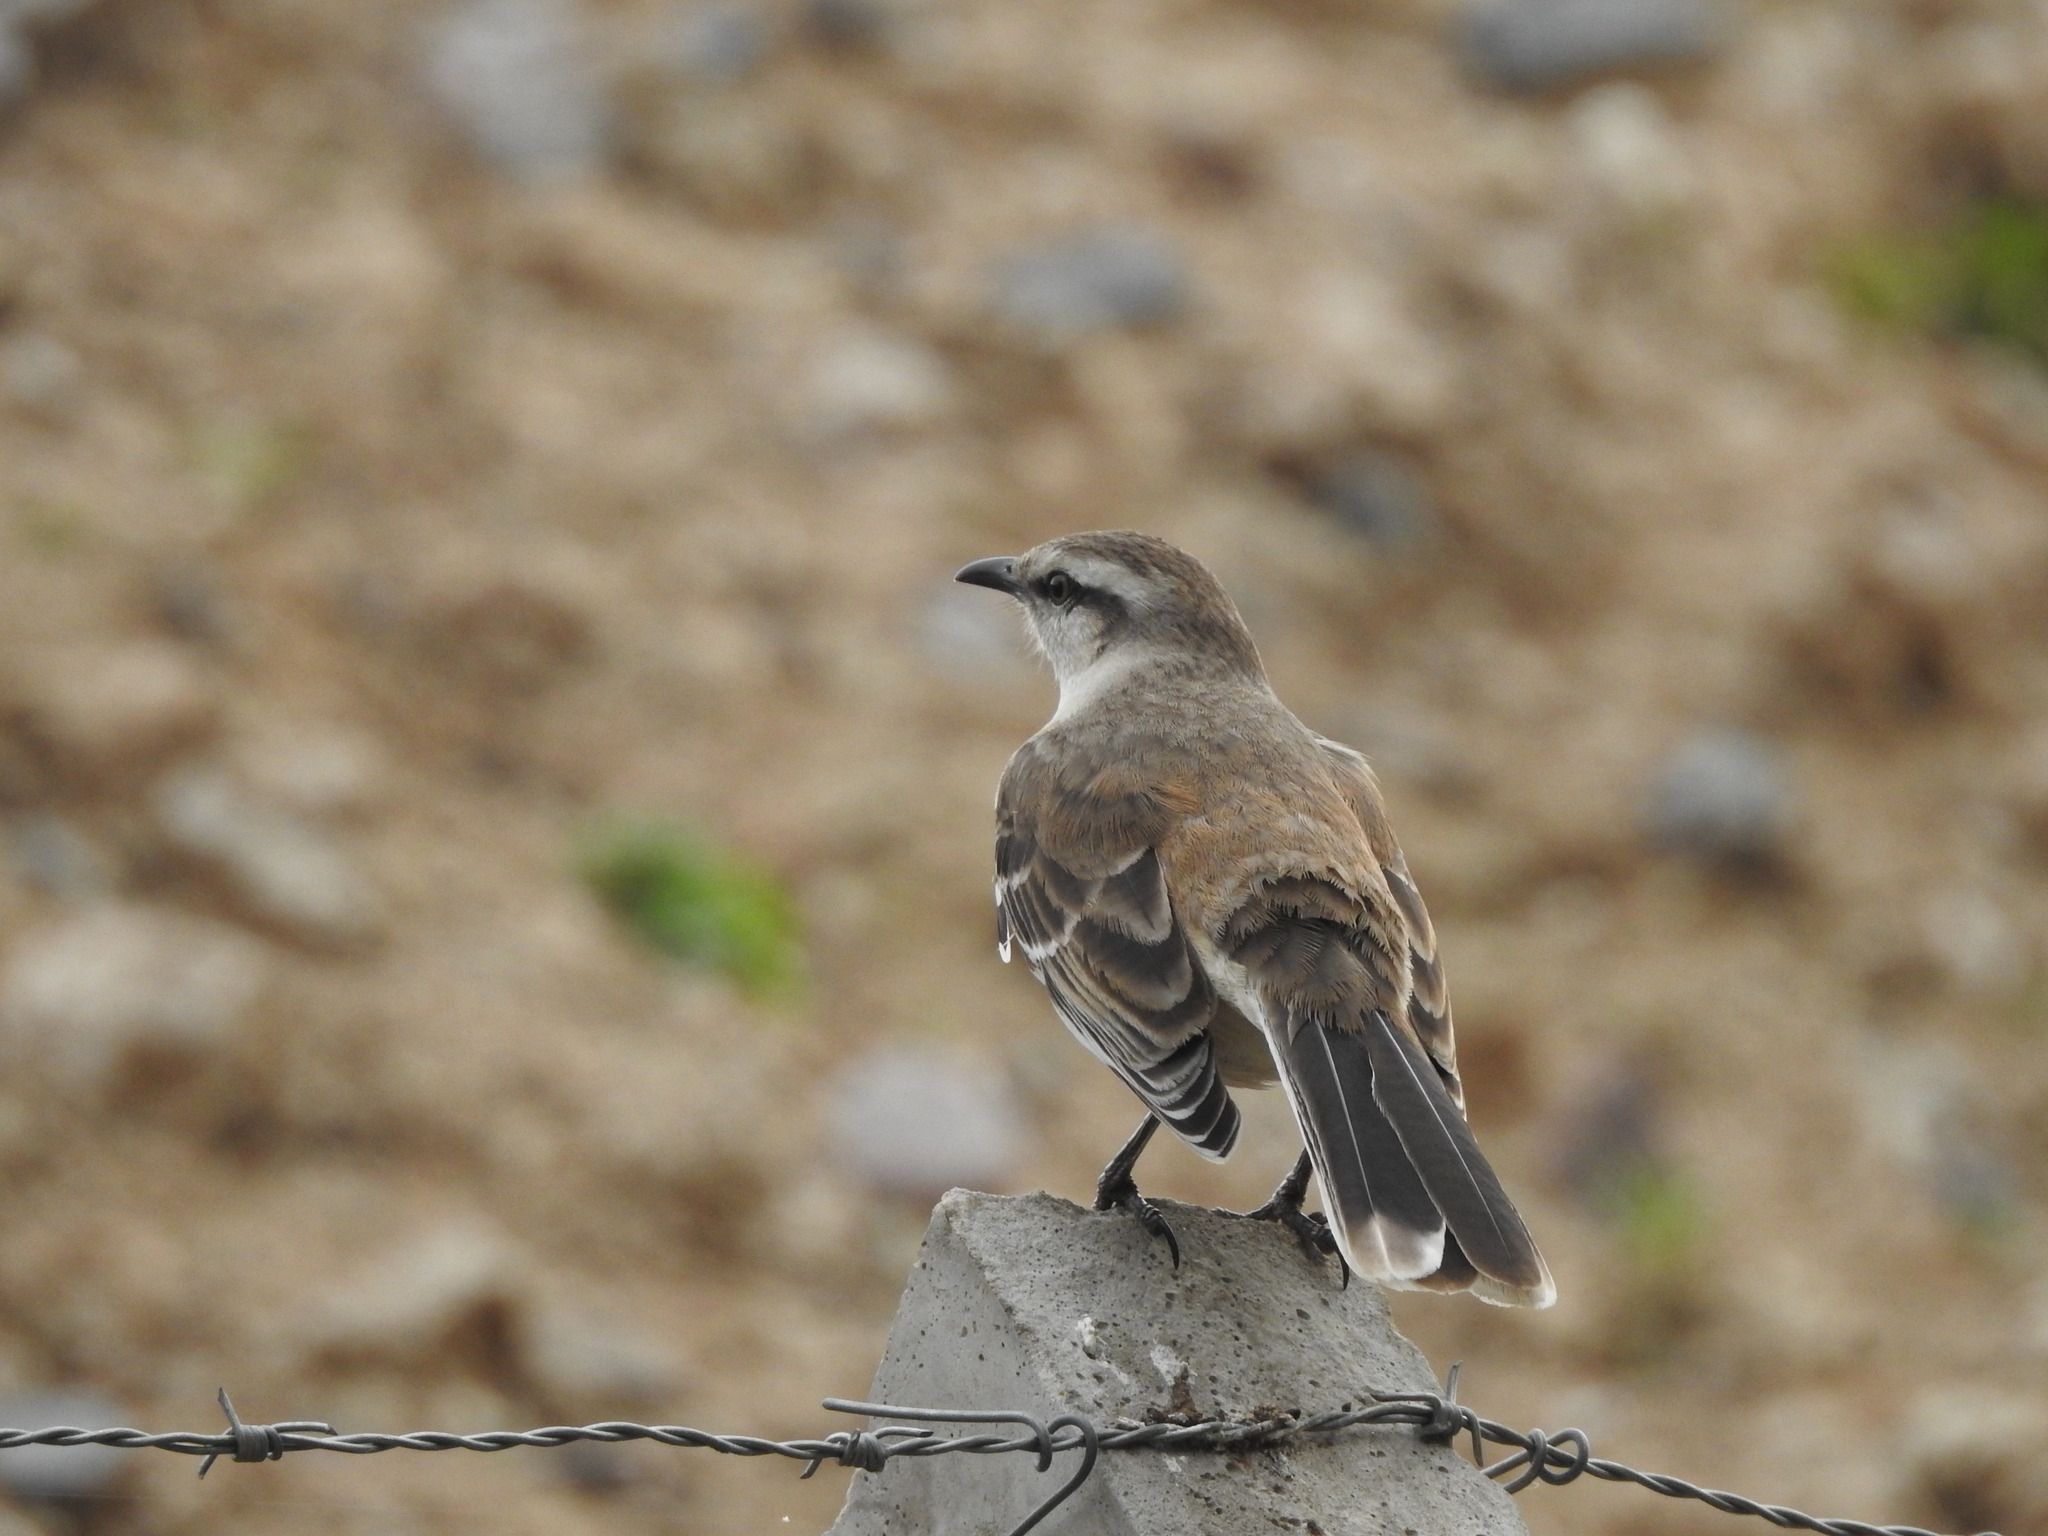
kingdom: Animalia
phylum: Chordata
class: Aves
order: Passeriformes
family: Mimidae
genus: Mimus
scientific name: Mimus saturninus
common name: Chalk-browed mockingbird
